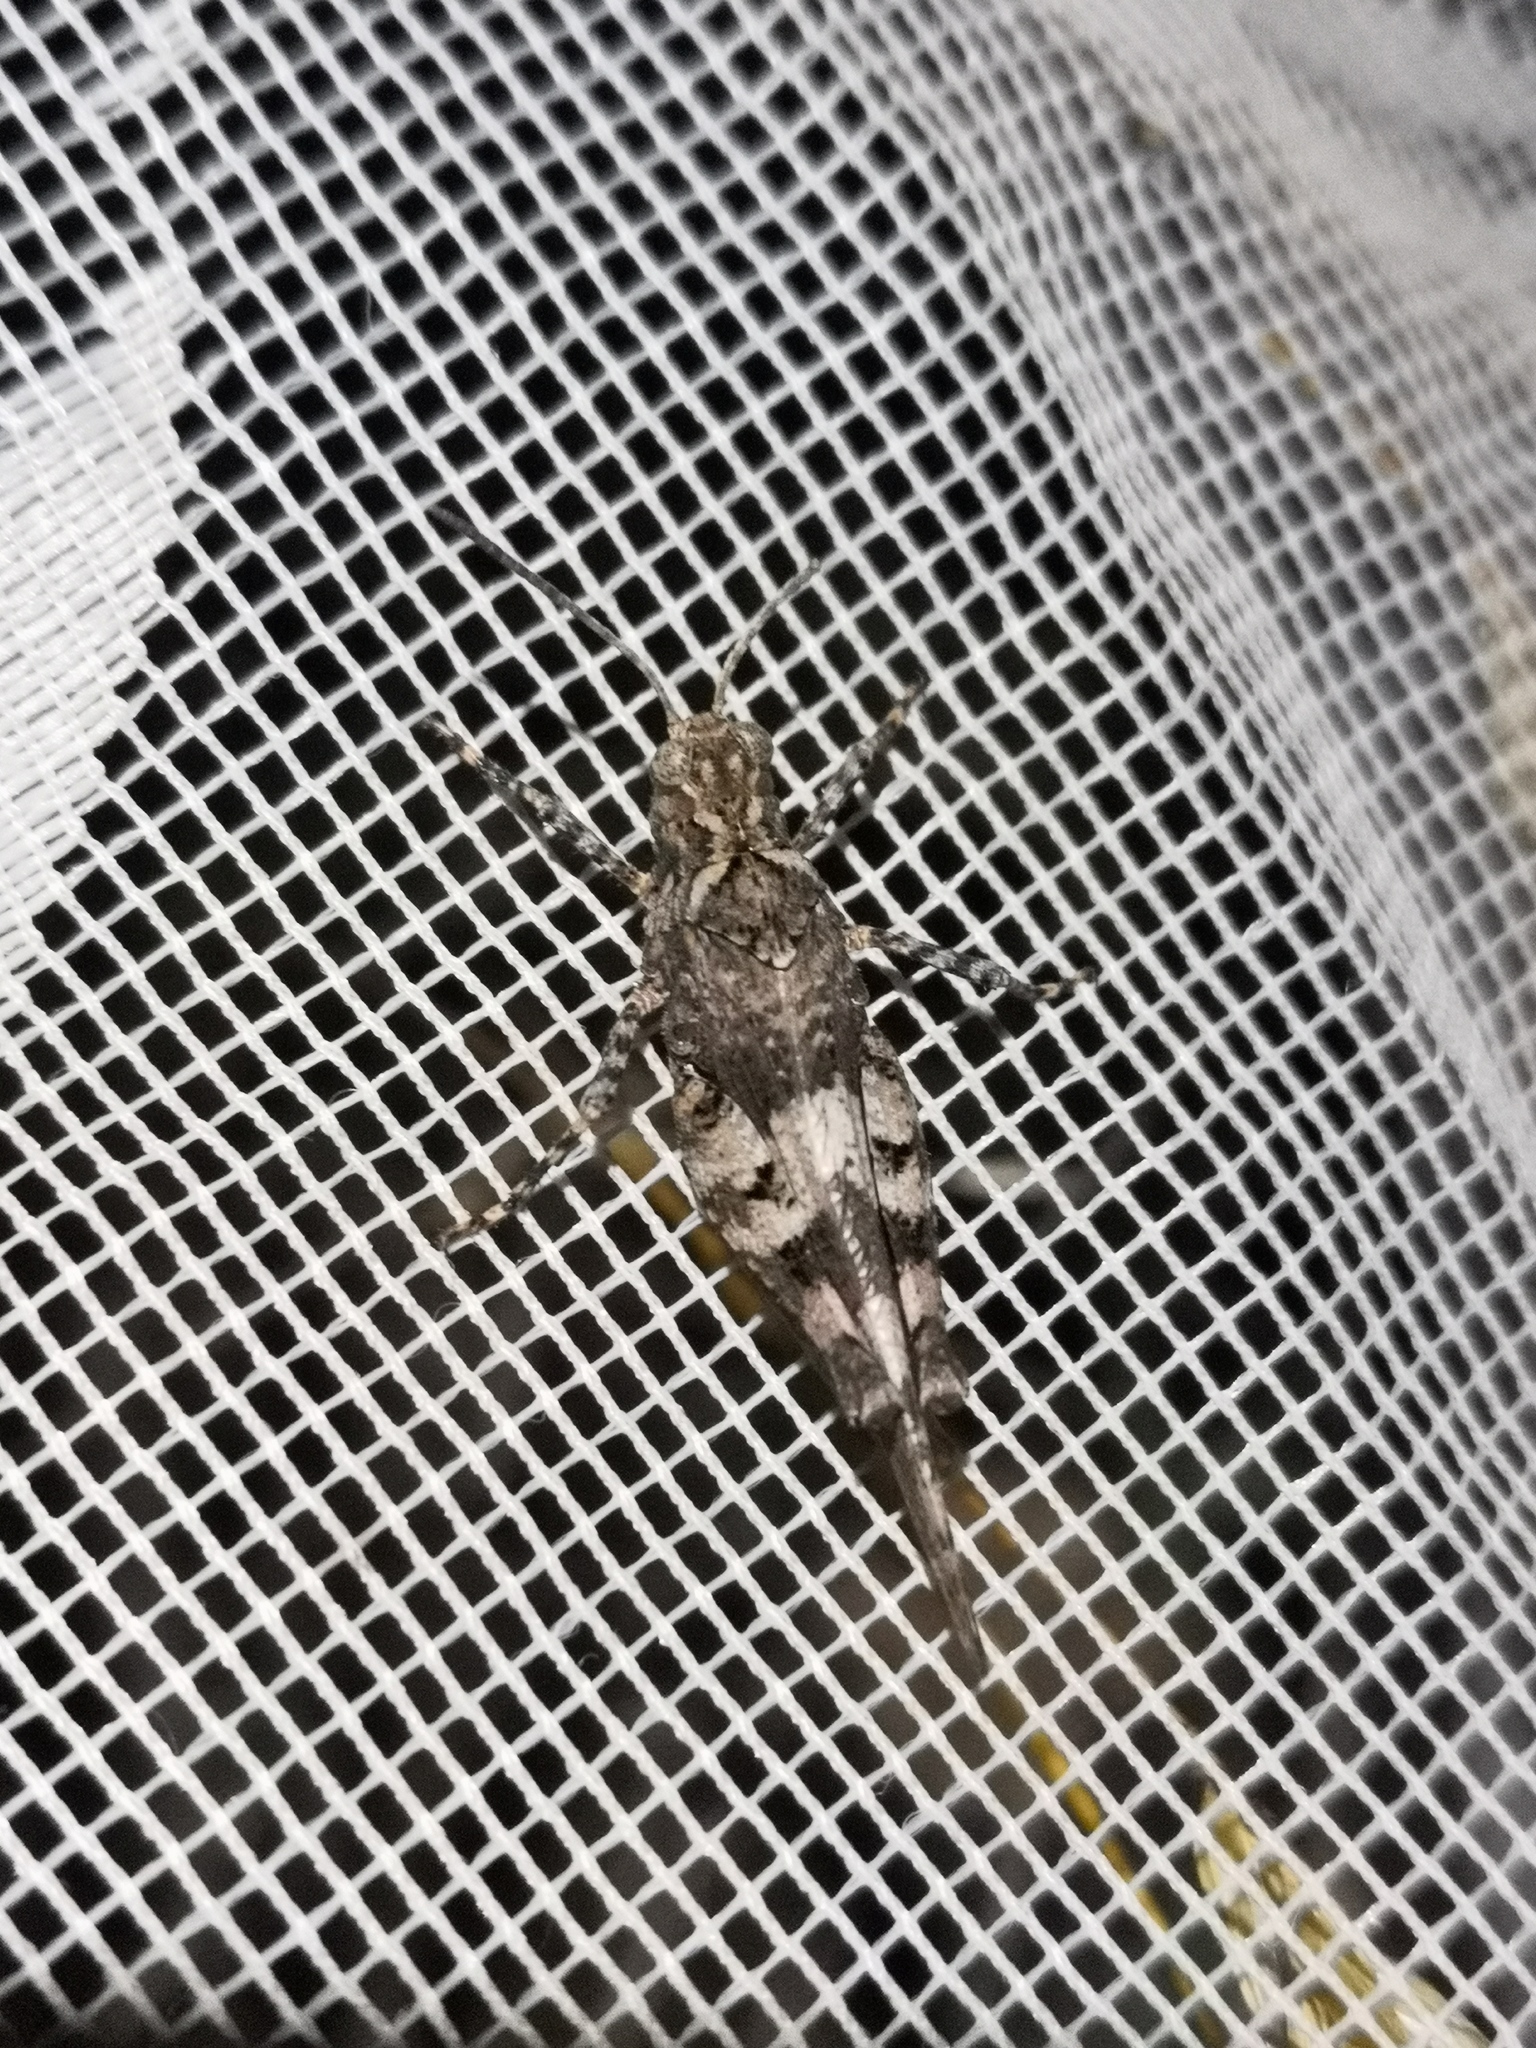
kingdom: Animalia
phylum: Arthropoda
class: Insecta
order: Orthoptera
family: Acrididae
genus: Oedipoda
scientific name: Oedipoda caerulescens
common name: Blue-winged grasshopper
